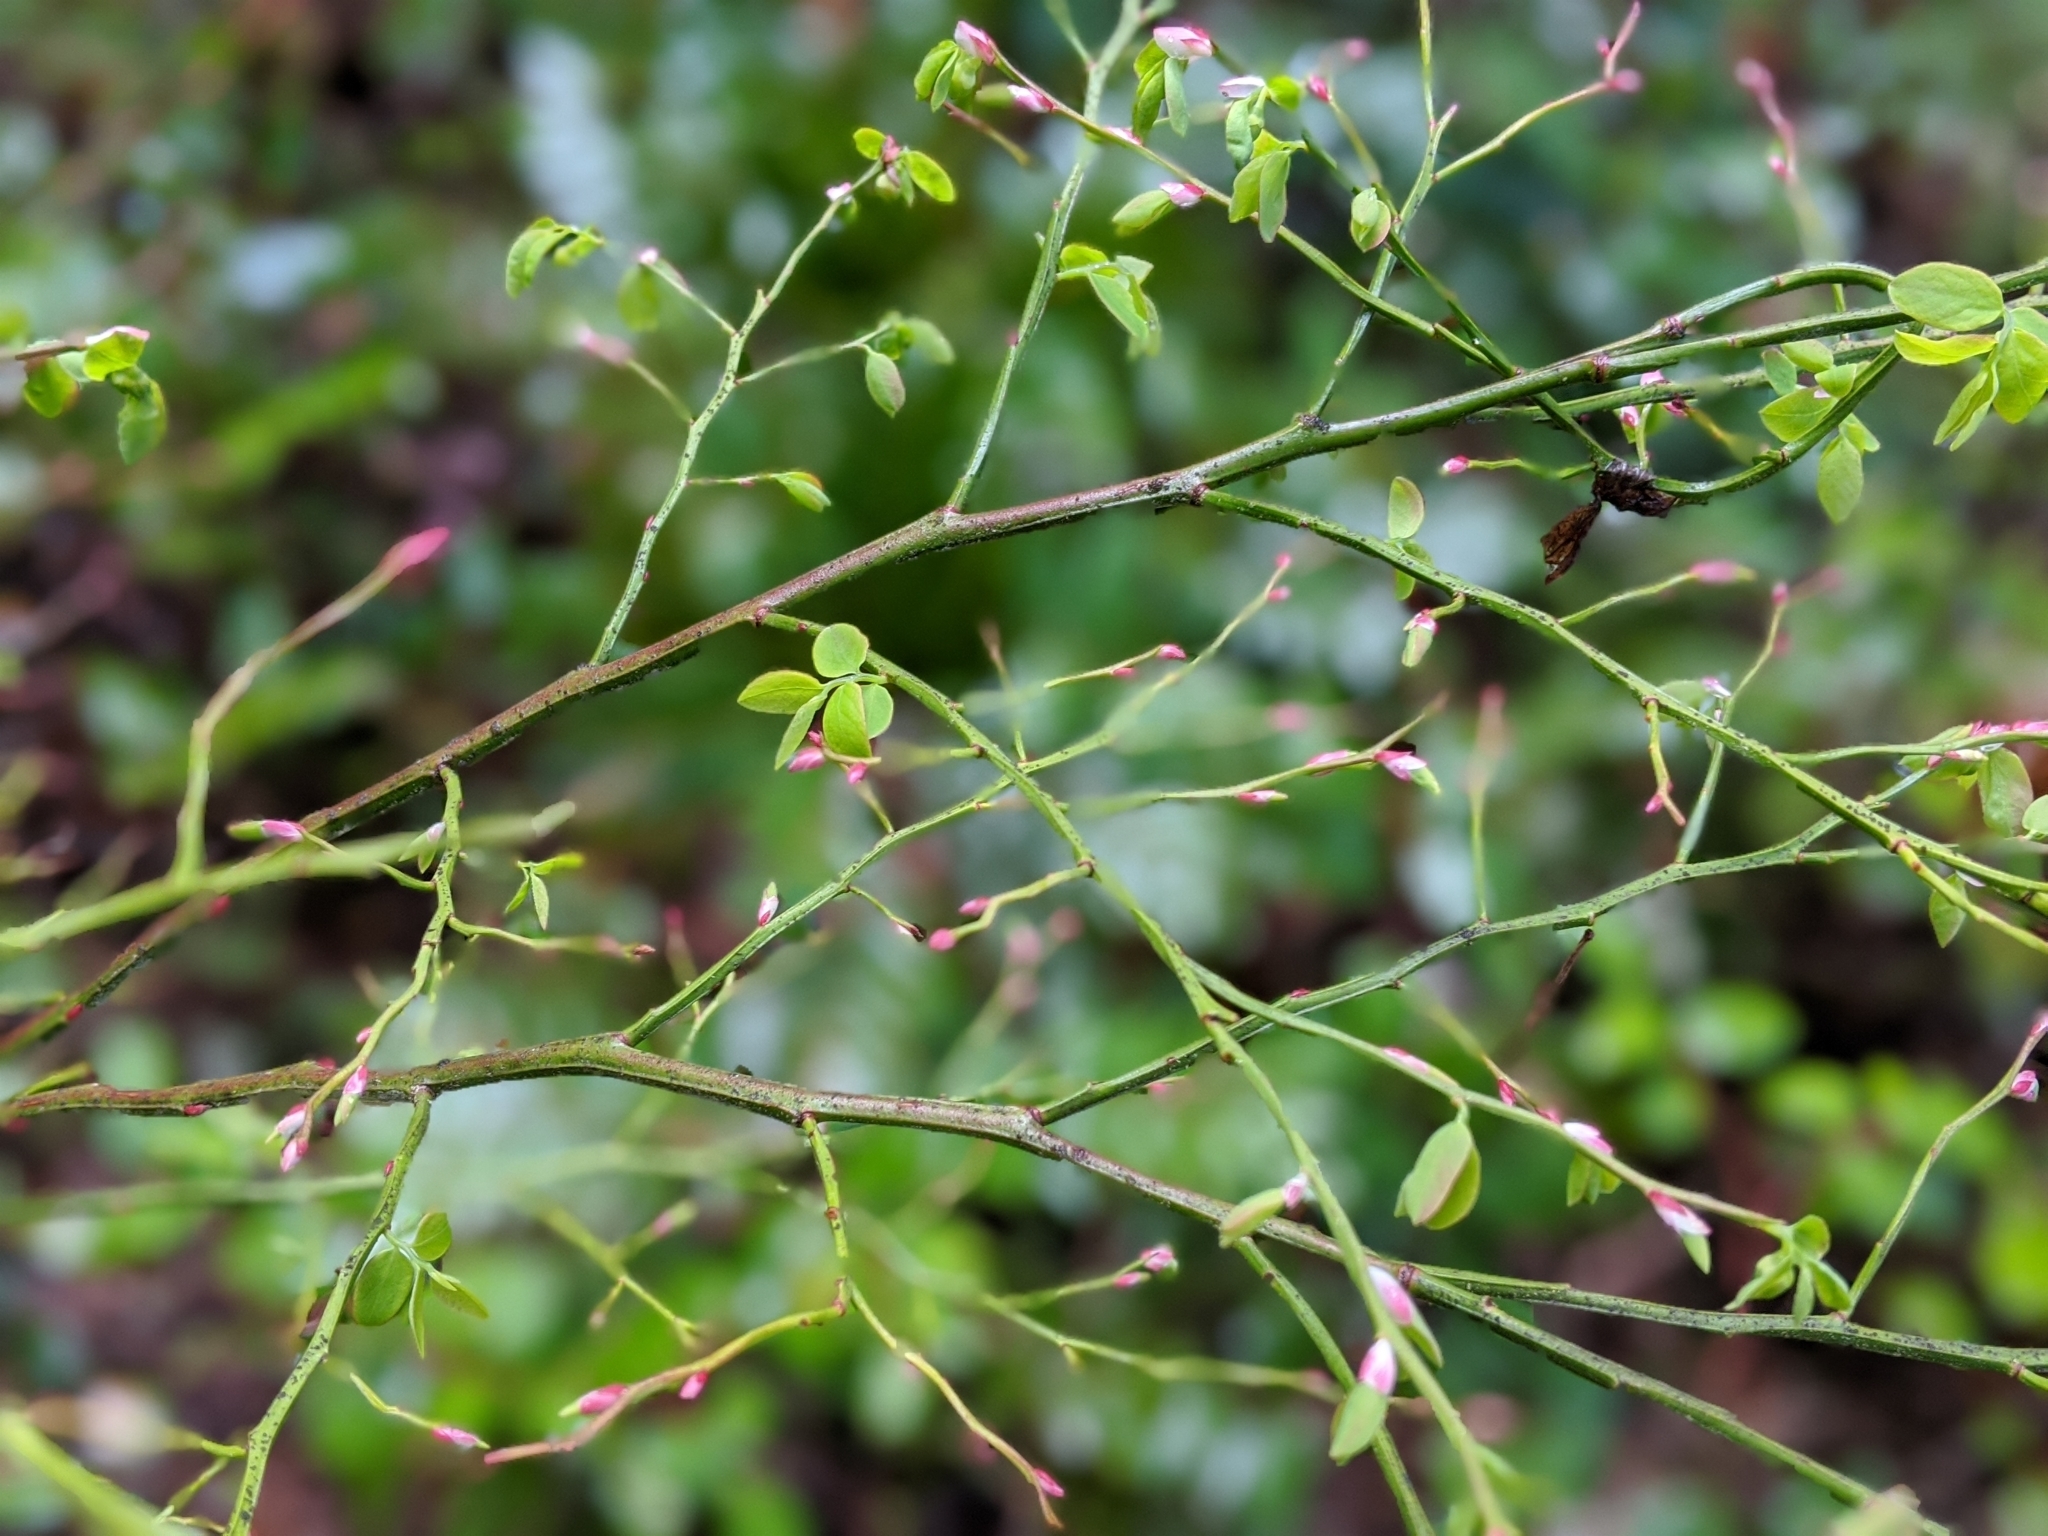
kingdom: Plantae
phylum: Tracheophyta
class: Magnoliopsida
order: Ericales
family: Ericaceae
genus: Vaccinium
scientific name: Vaccinium parvifolium
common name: Red-huckleberry
